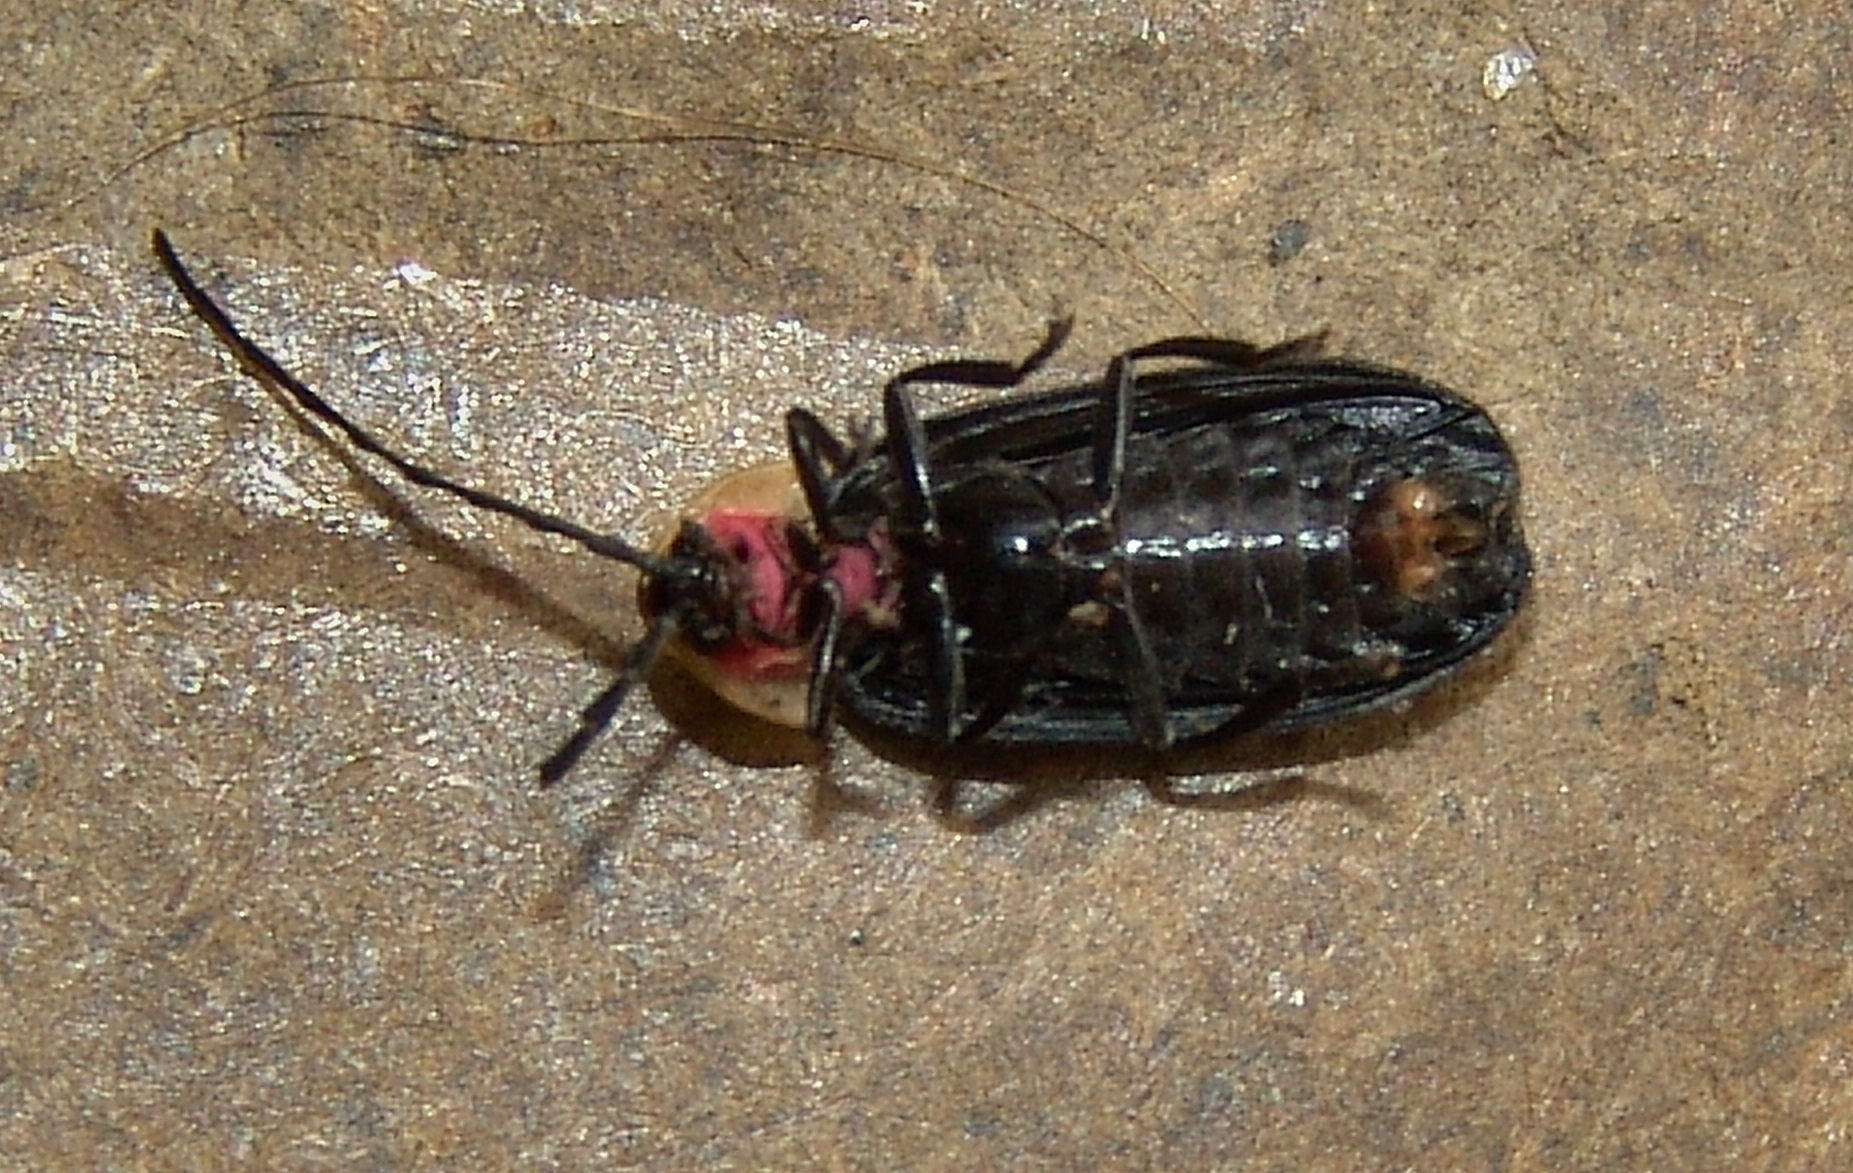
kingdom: Animalia
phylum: Arthropoda
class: Insecta
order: Coleoptera
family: Lampyridae
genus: Lucidota
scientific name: Lucidota atra
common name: Black firefly
